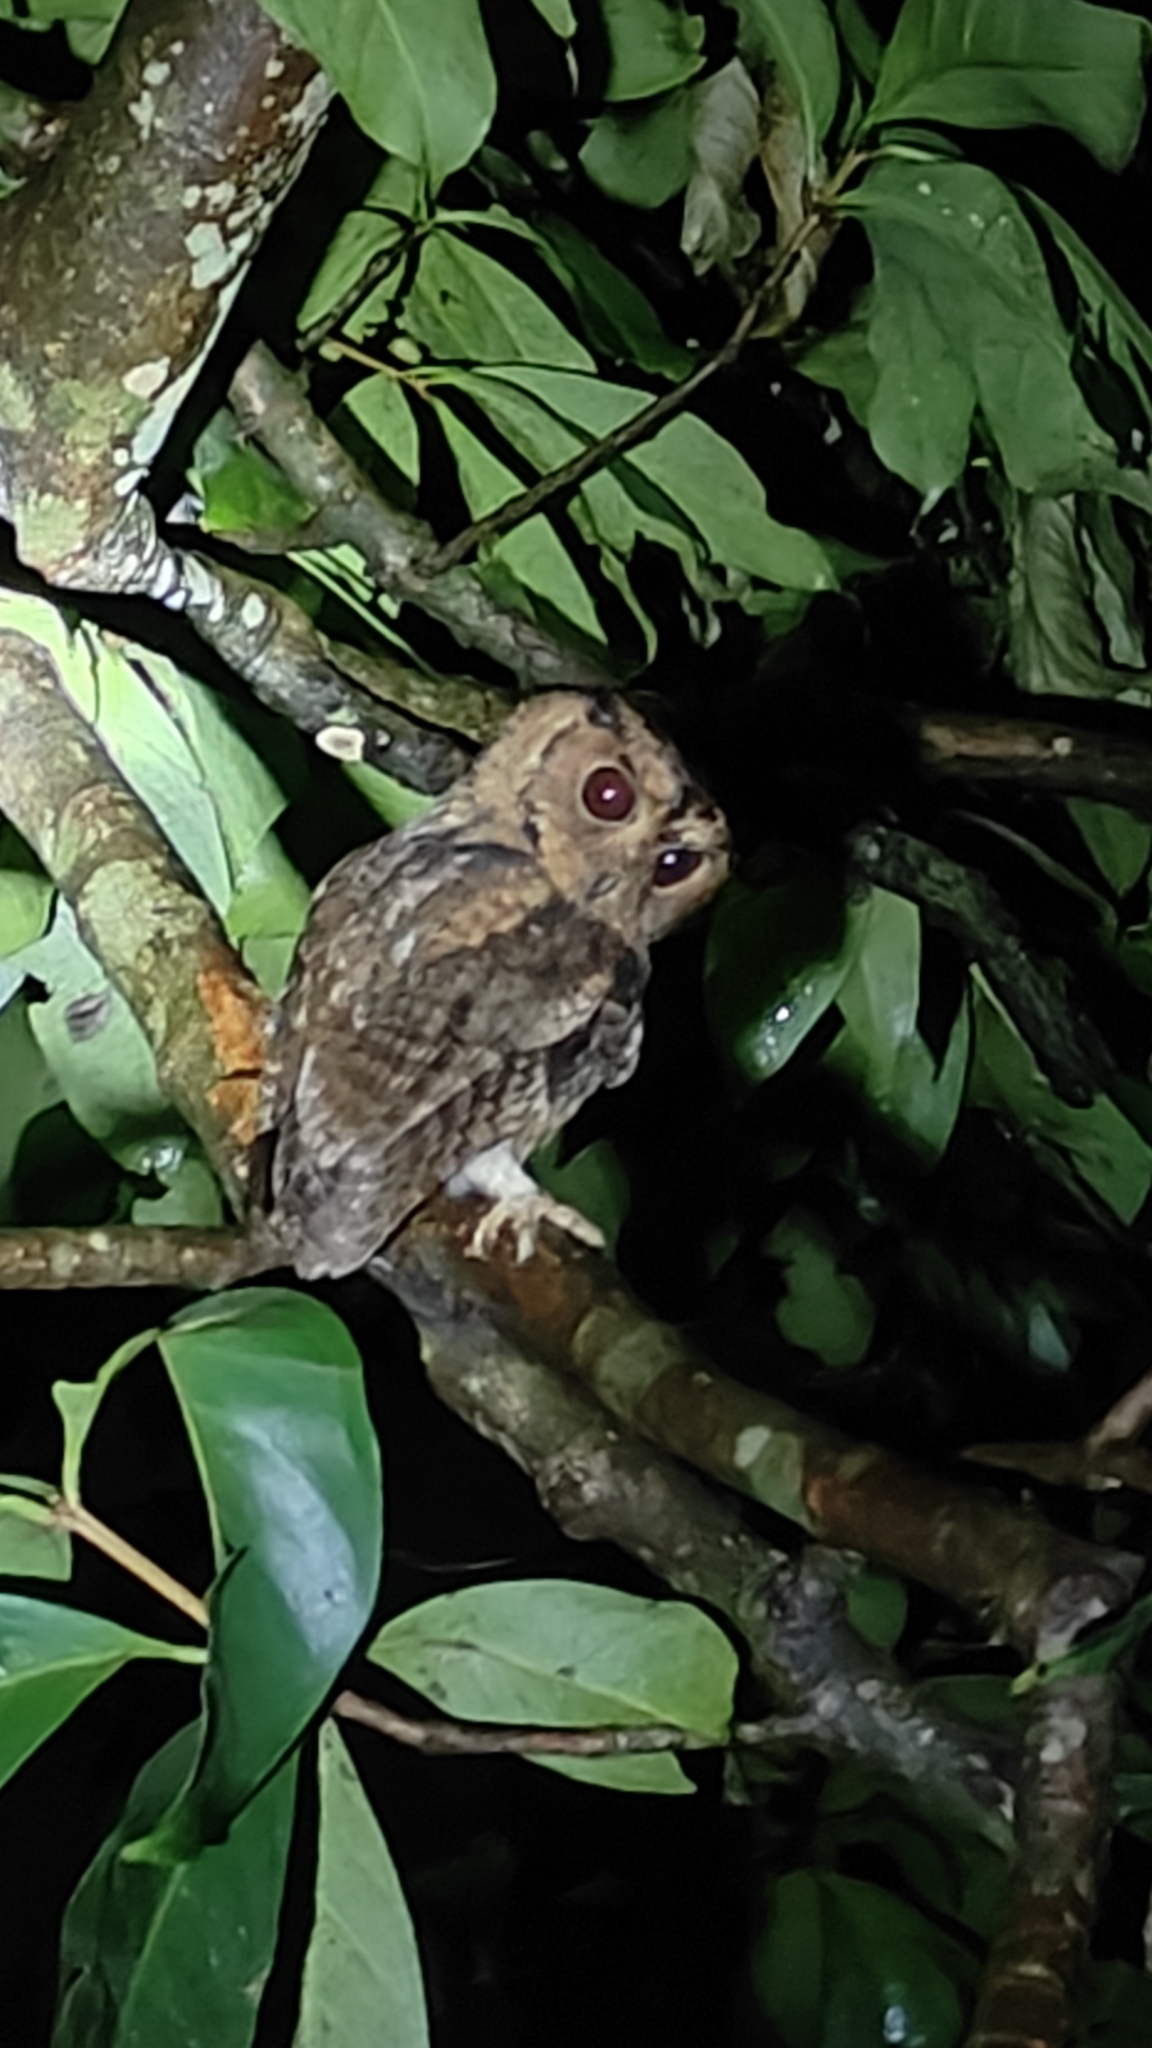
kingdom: Animalia
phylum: Chordata
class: Aves
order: Strigiformes
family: Strigidae
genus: Otus
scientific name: Otus bakkamoena
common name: Indian scops owl
